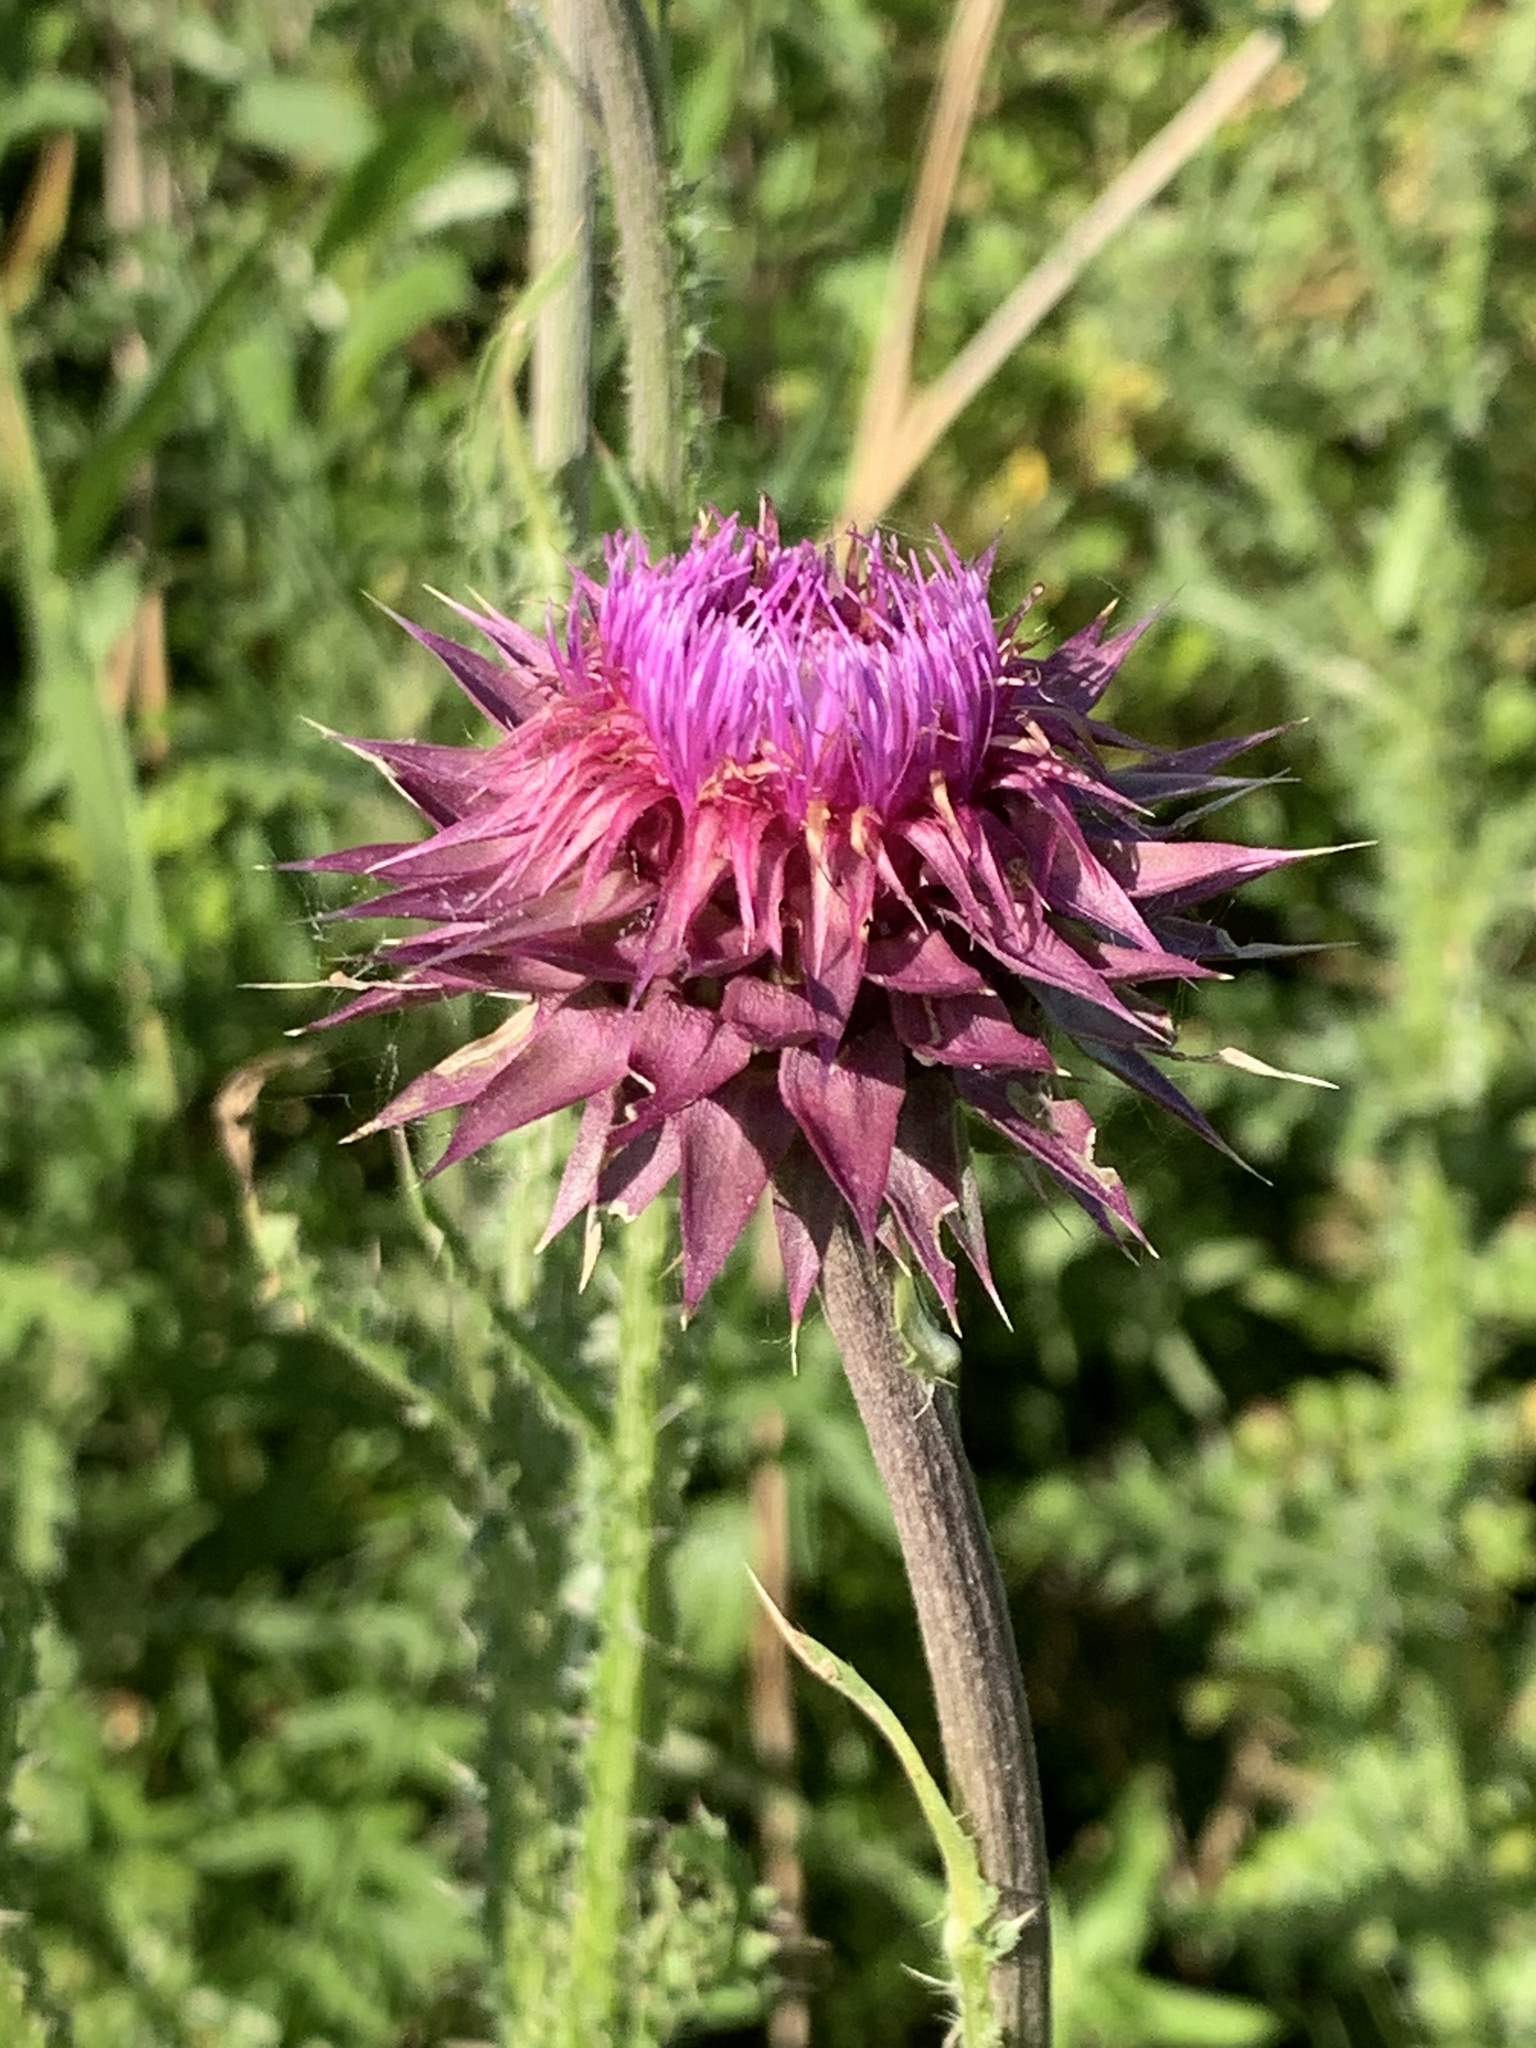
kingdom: Plantae
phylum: Tracheophyta
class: Magnoliopsida
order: Asterales
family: Asteraceae
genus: Carduus
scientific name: Carduus nutans
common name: Musk thistle
